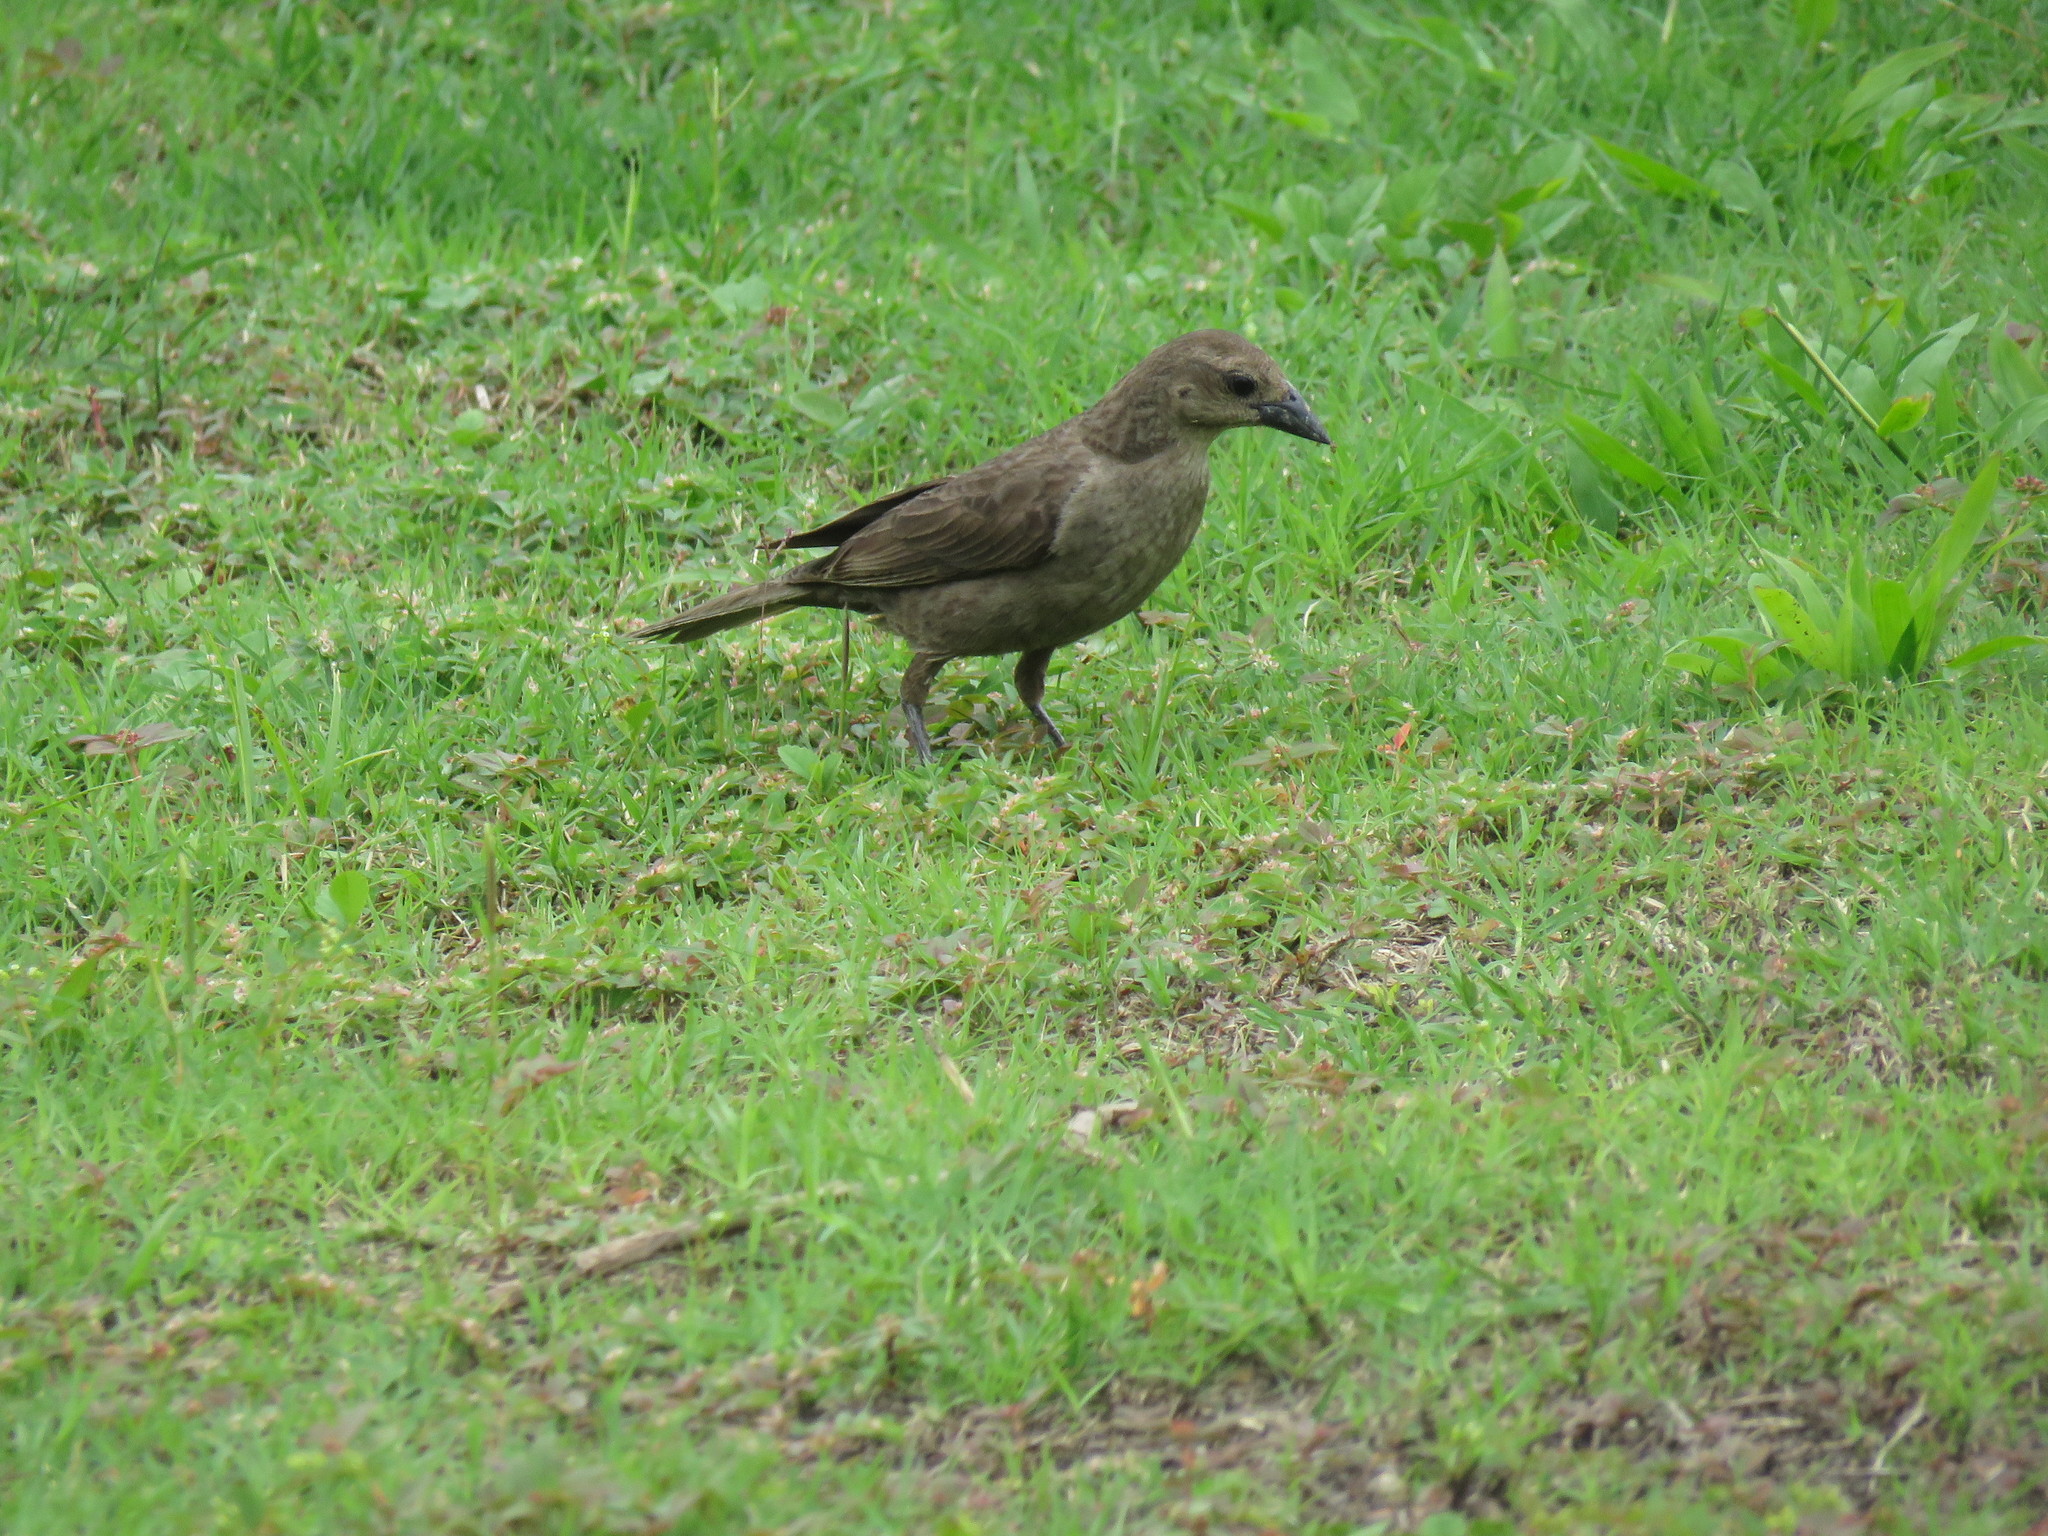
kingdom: Animalia
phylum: Chordata
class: Aves
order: Passeriformes
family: Icteridae
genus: Molothrus
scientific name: Molothrus bonariensis
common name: Shiny cowbird
